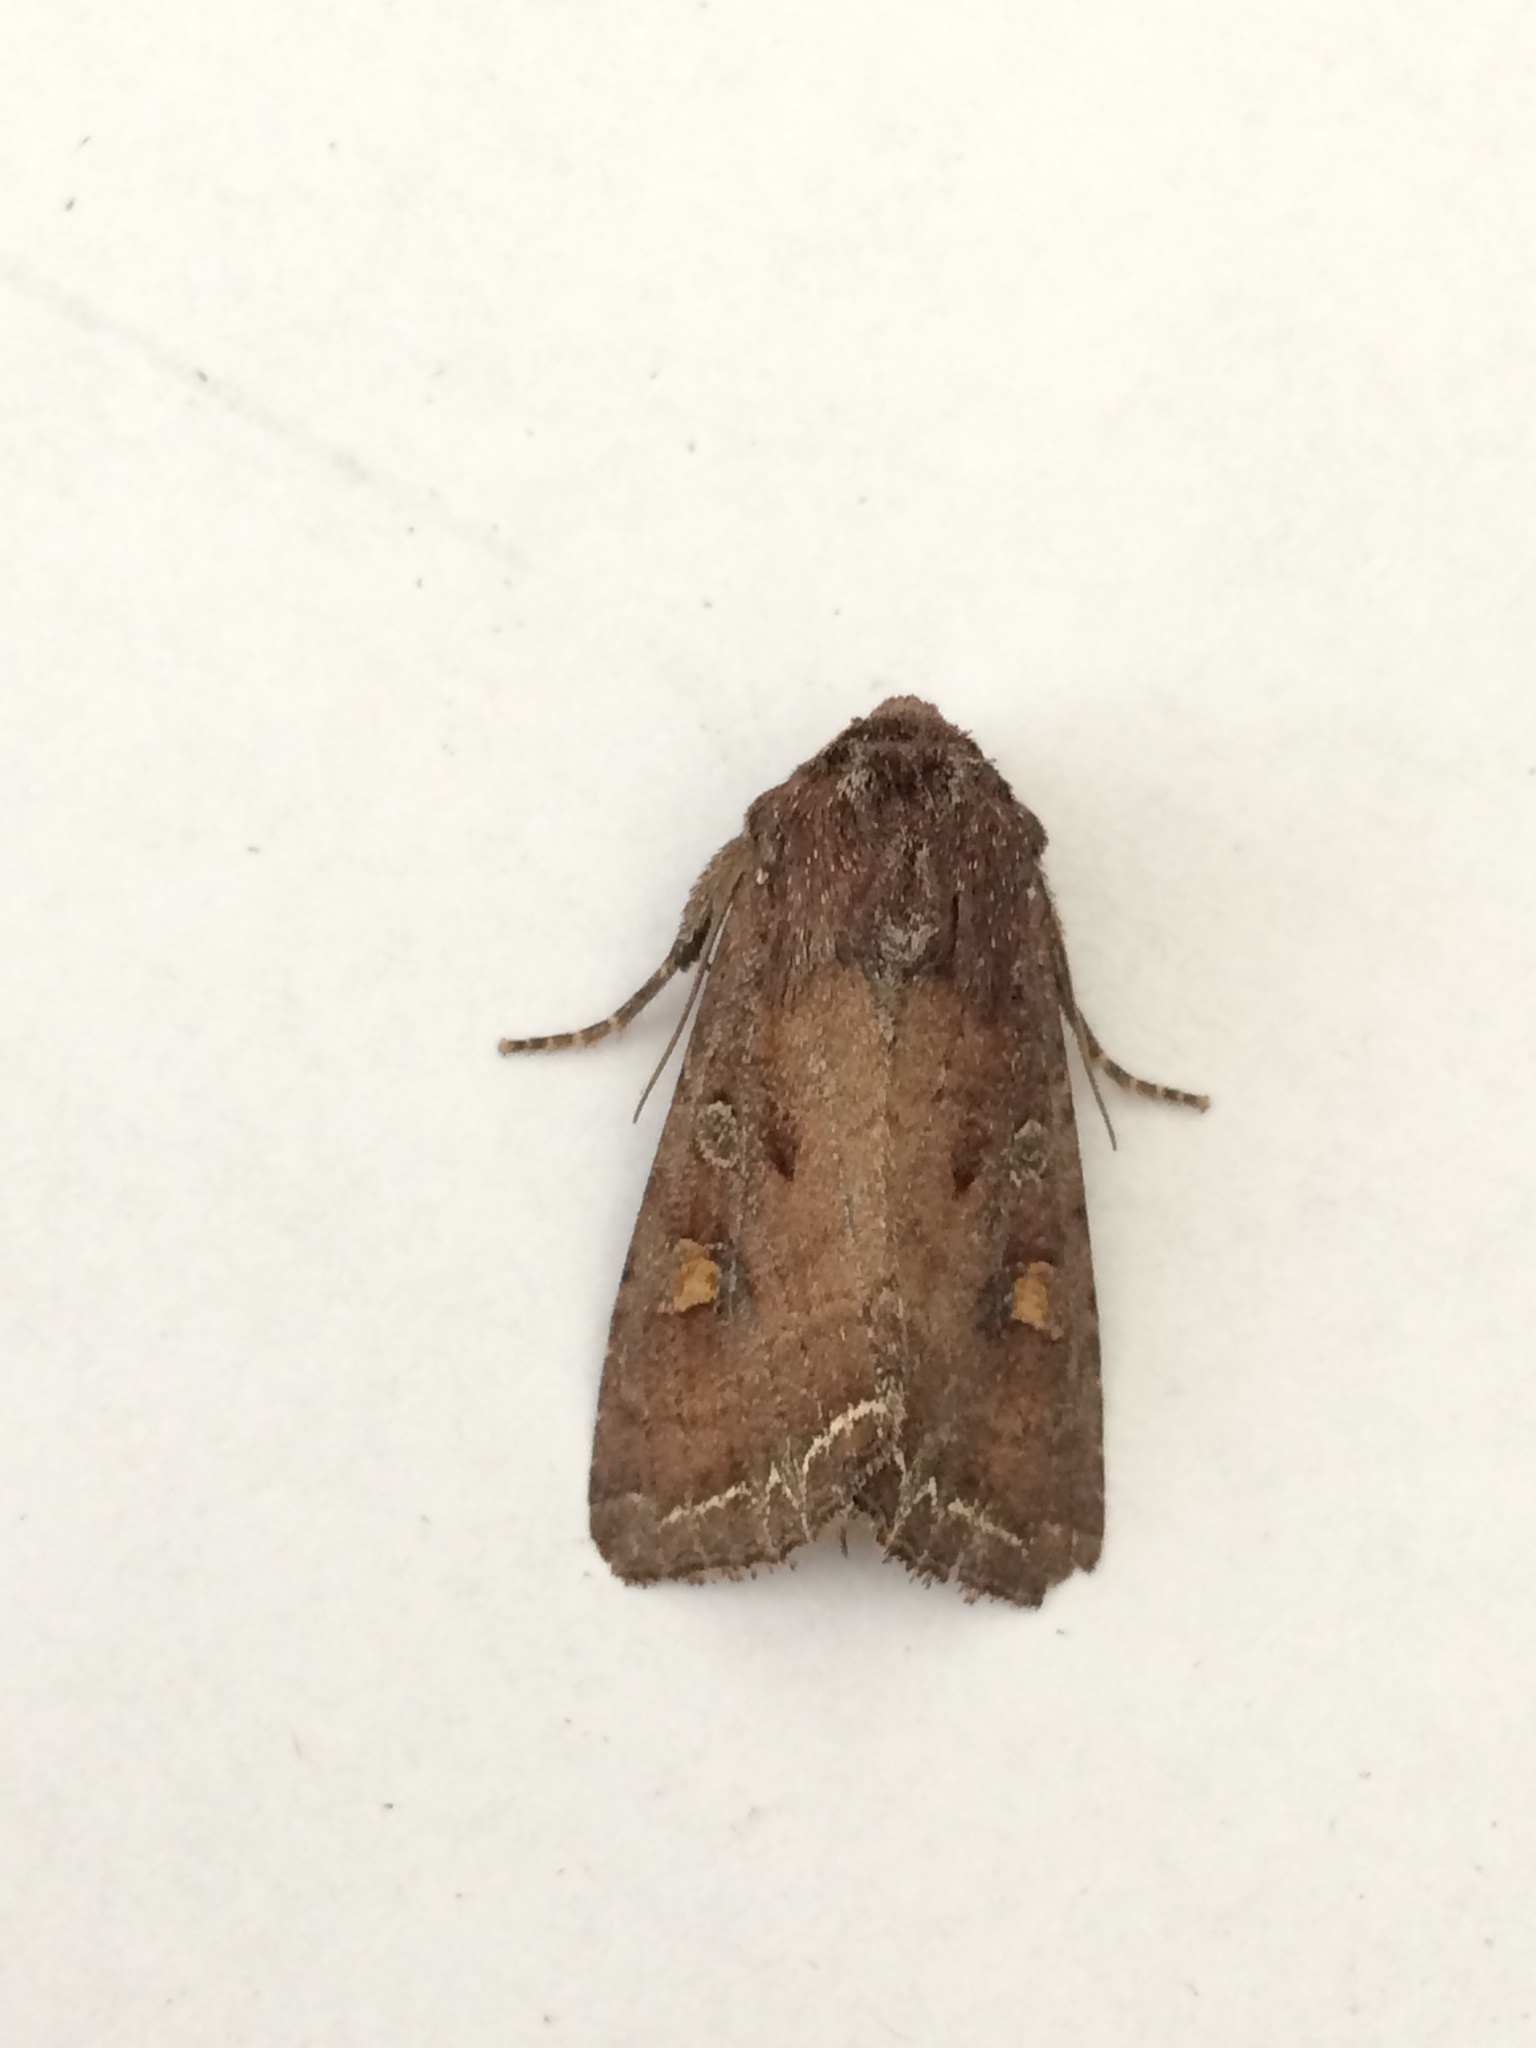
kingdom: Animalia
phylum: Arthropoda
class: Insecta
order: Lepidoptera
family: Noctuidae
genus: Lacanobia
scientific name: Lacanobia oleracea
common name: Bright-line brown-eye
